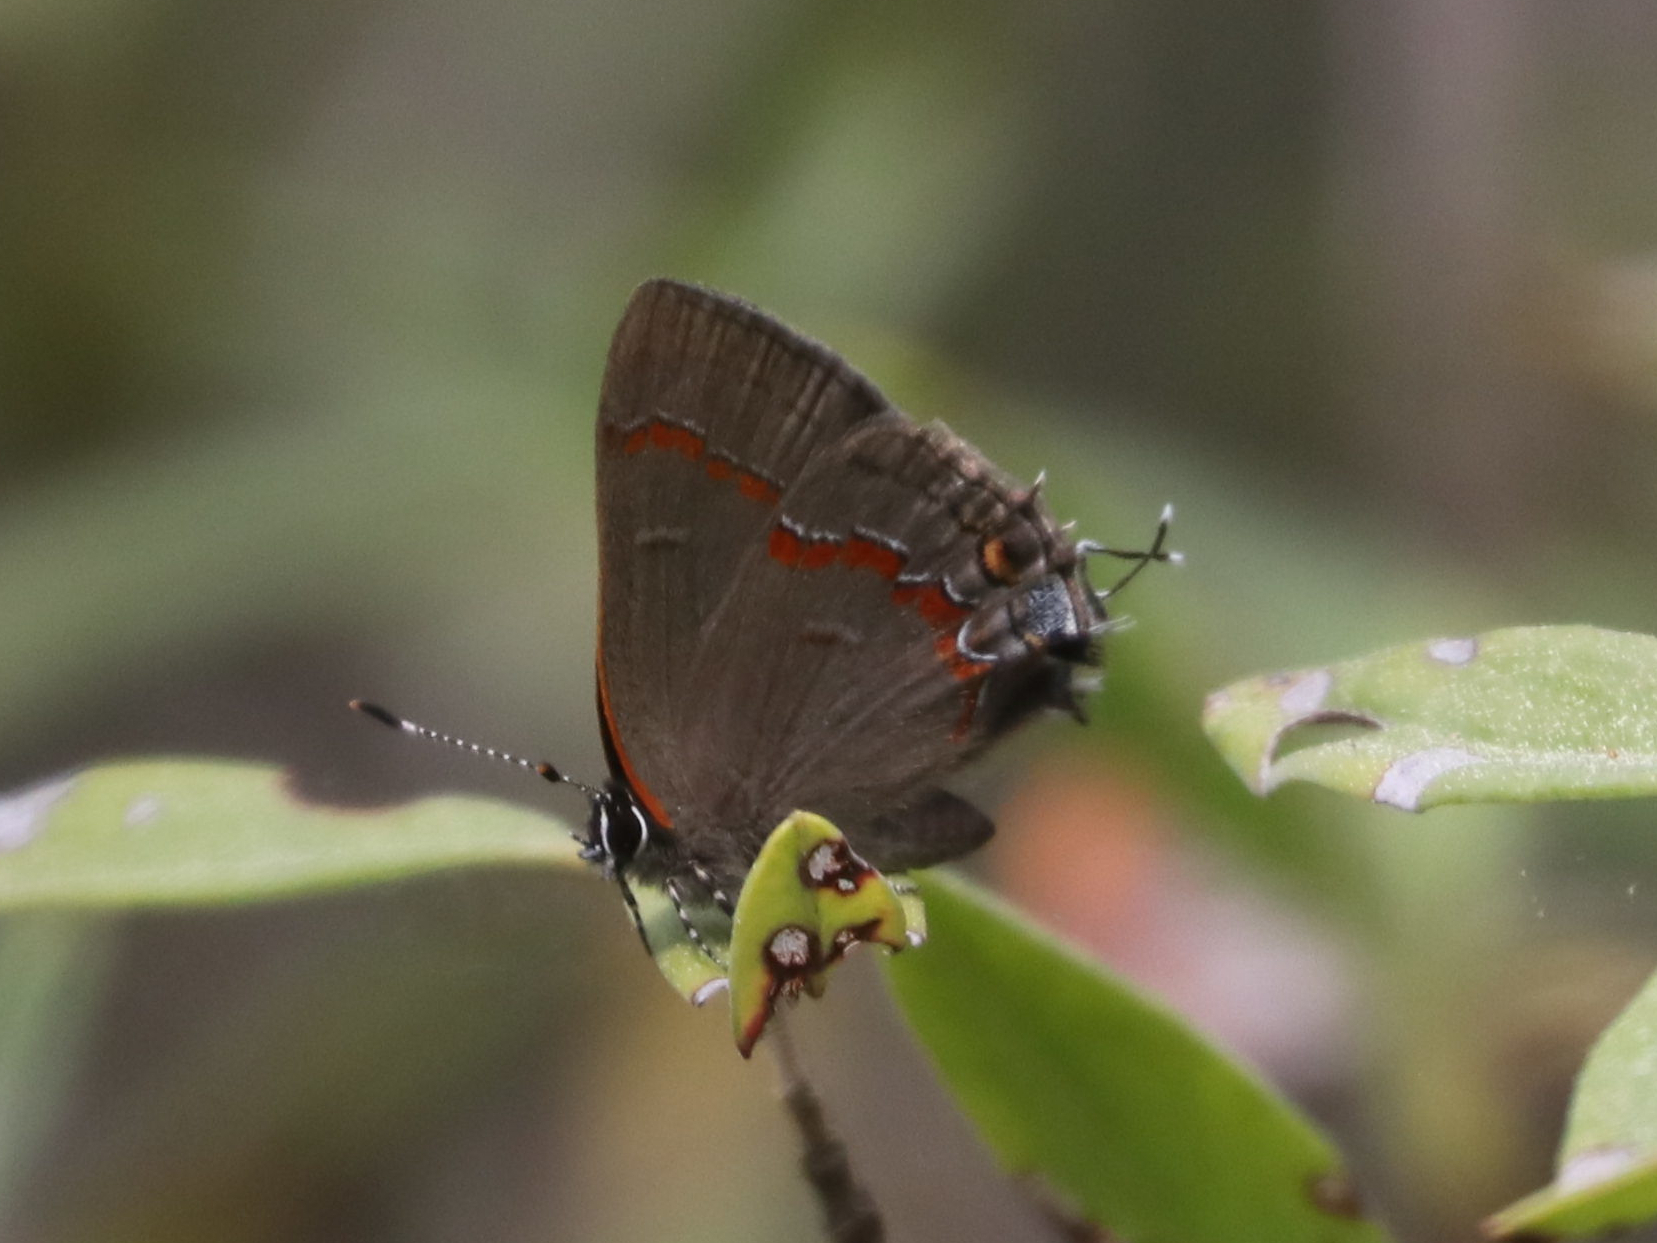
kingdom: Animalia
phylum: Arthropoda
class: Insecta
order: Lepidoptera
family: Lycaenidae
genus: Calycopis
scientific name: Calycopis cecrops
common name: Red-banded hairstreak
